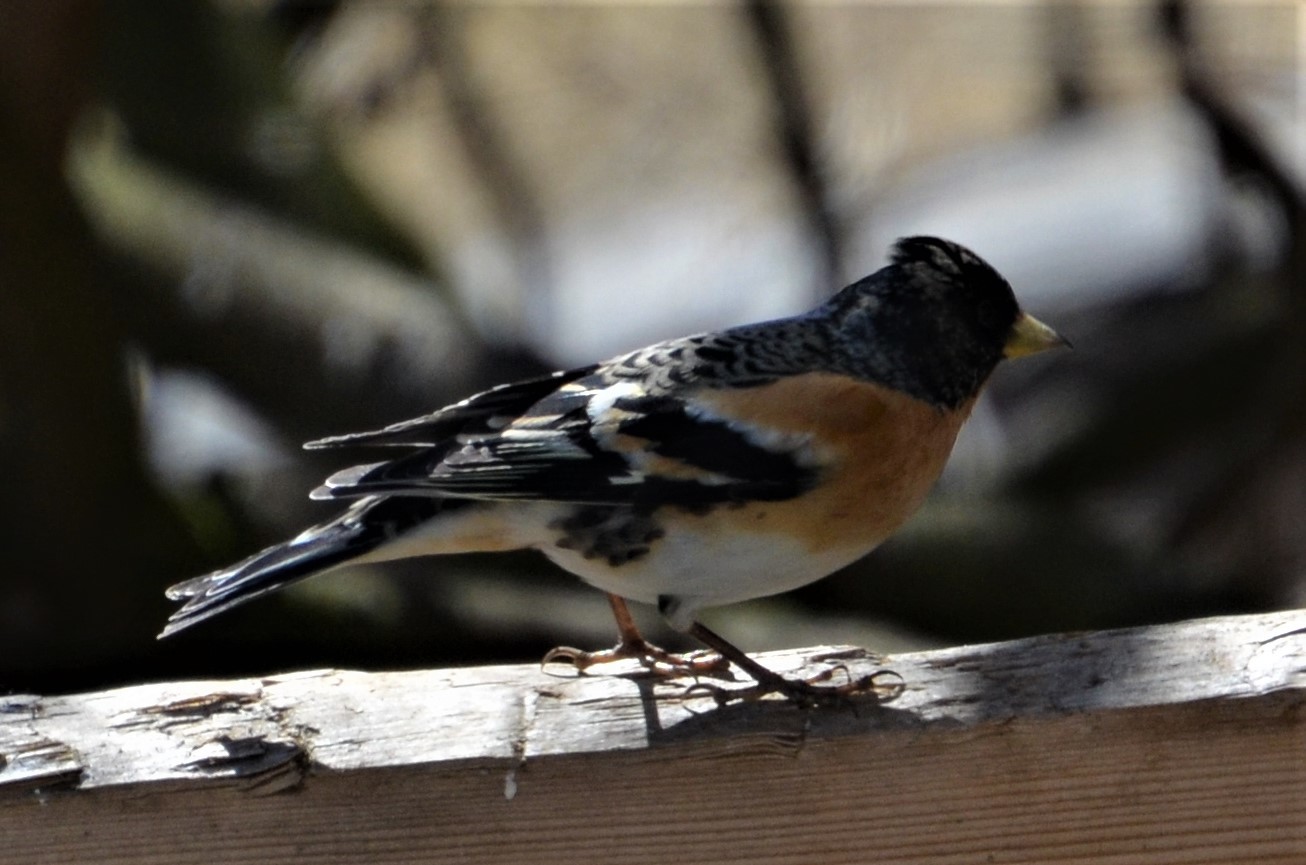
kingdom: Animalia
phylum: Chordata
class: Aves
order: Passeriformes
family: Fringillidae
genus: Fringilla
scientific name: Fringilla montifringilla
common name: Brambling
